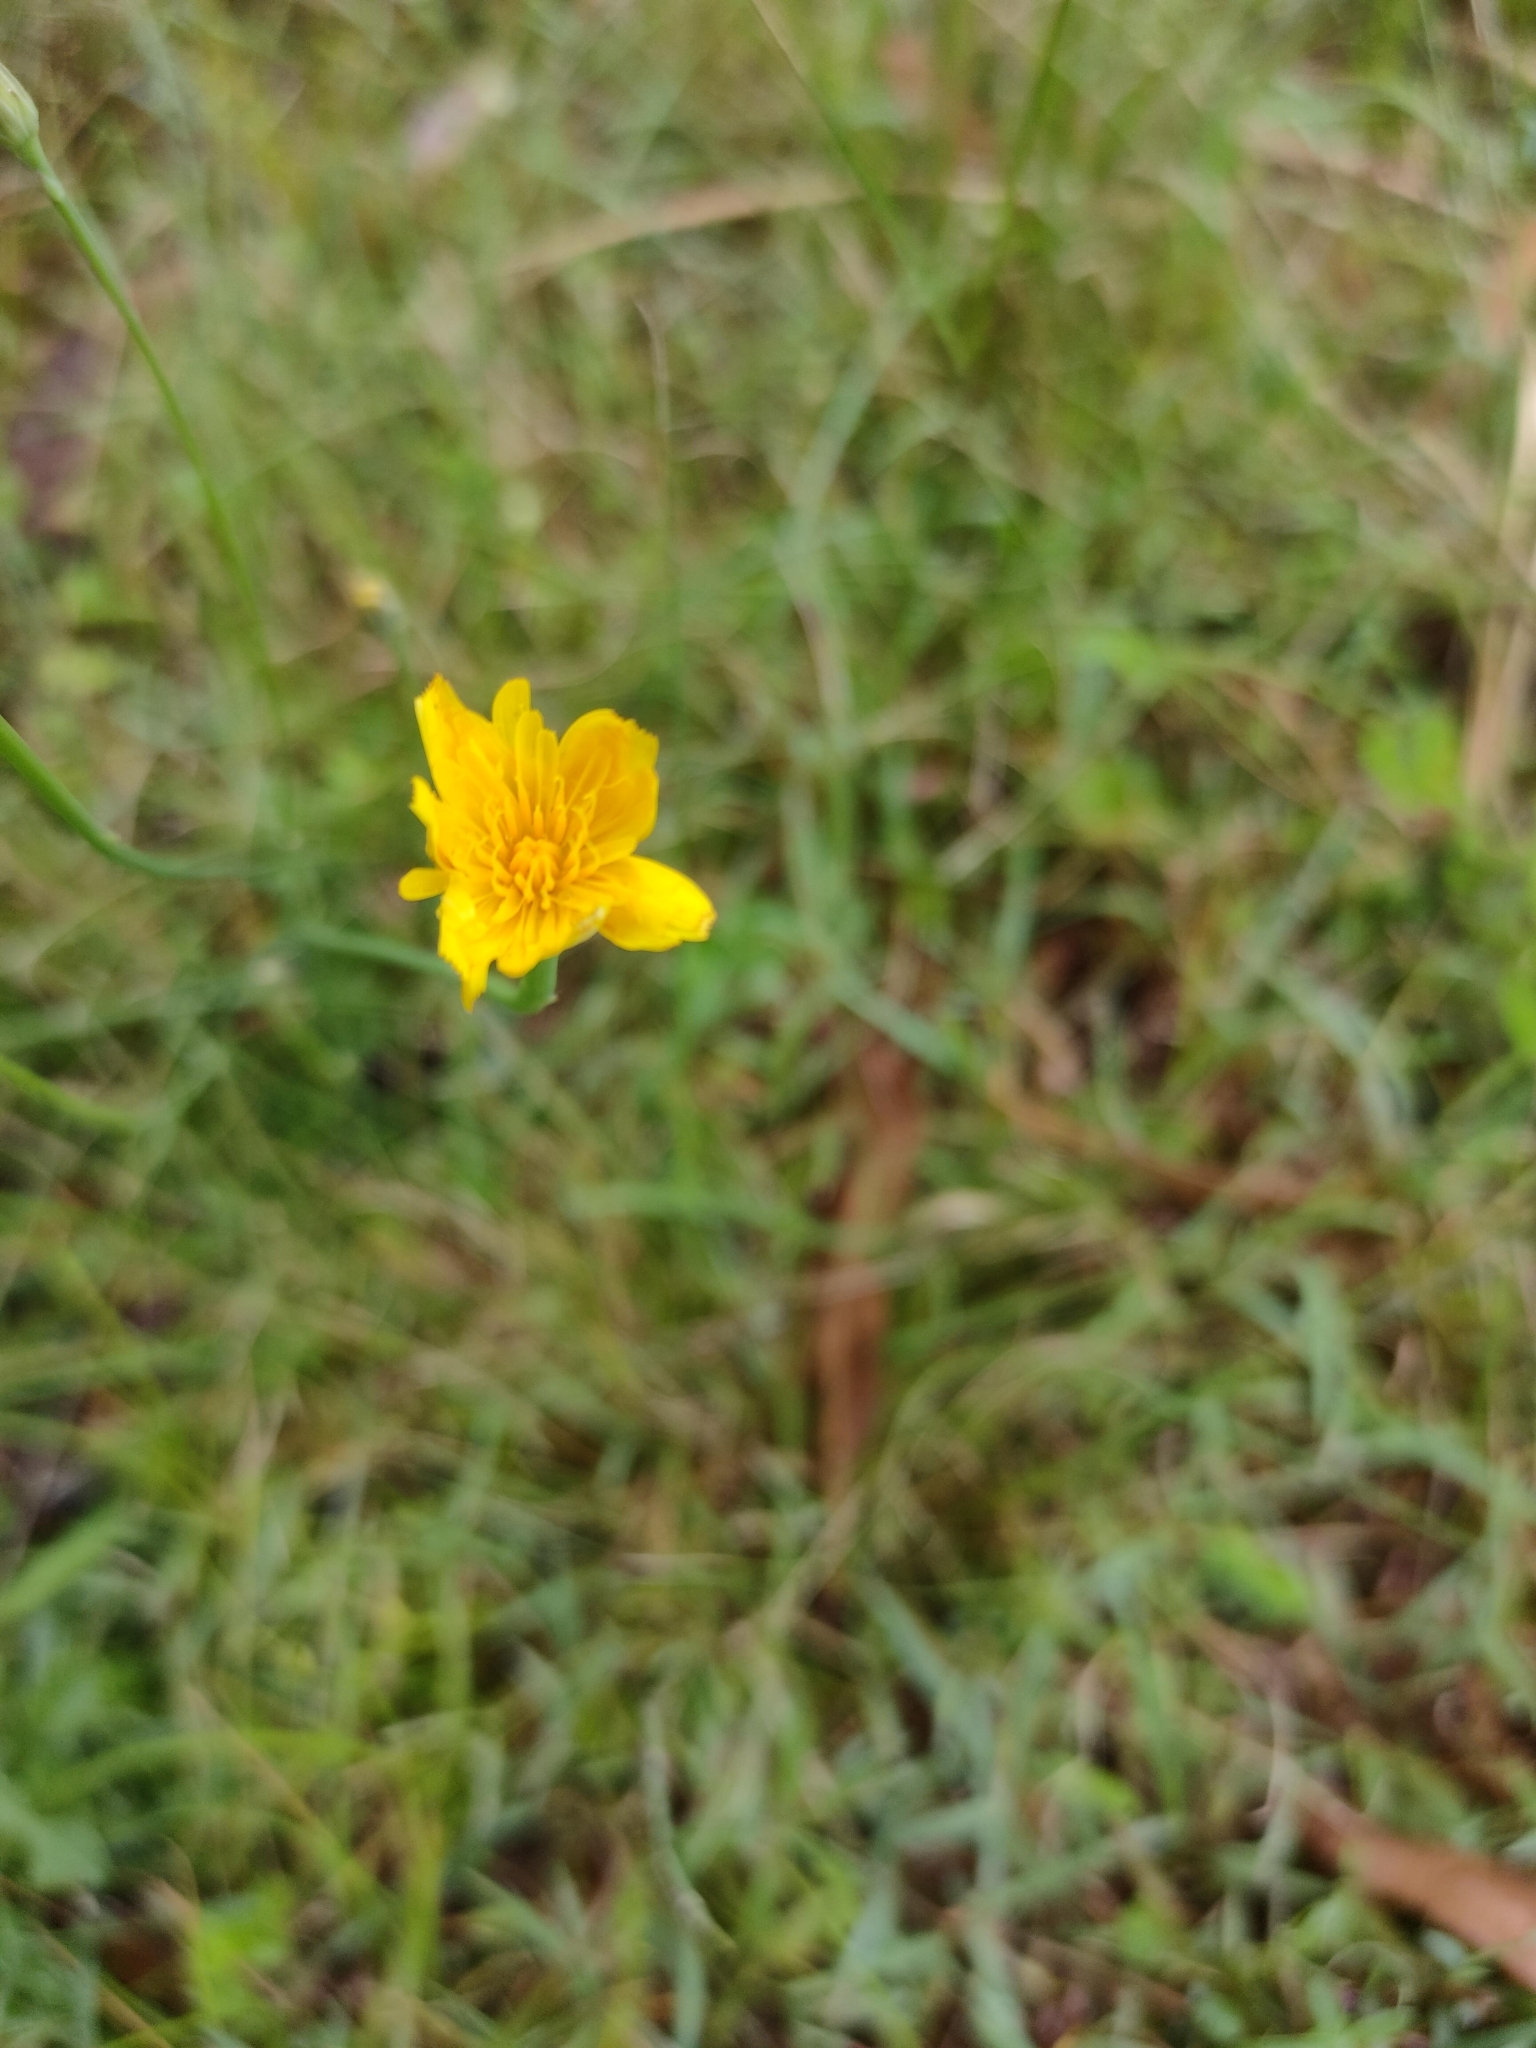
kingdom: Plantae
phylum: Tracheophyta
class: Magnoliopsida
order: Asterales
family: Asteraceae
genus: Hypochaeris
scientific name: Hypochaeris radicata
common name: Flatweed
